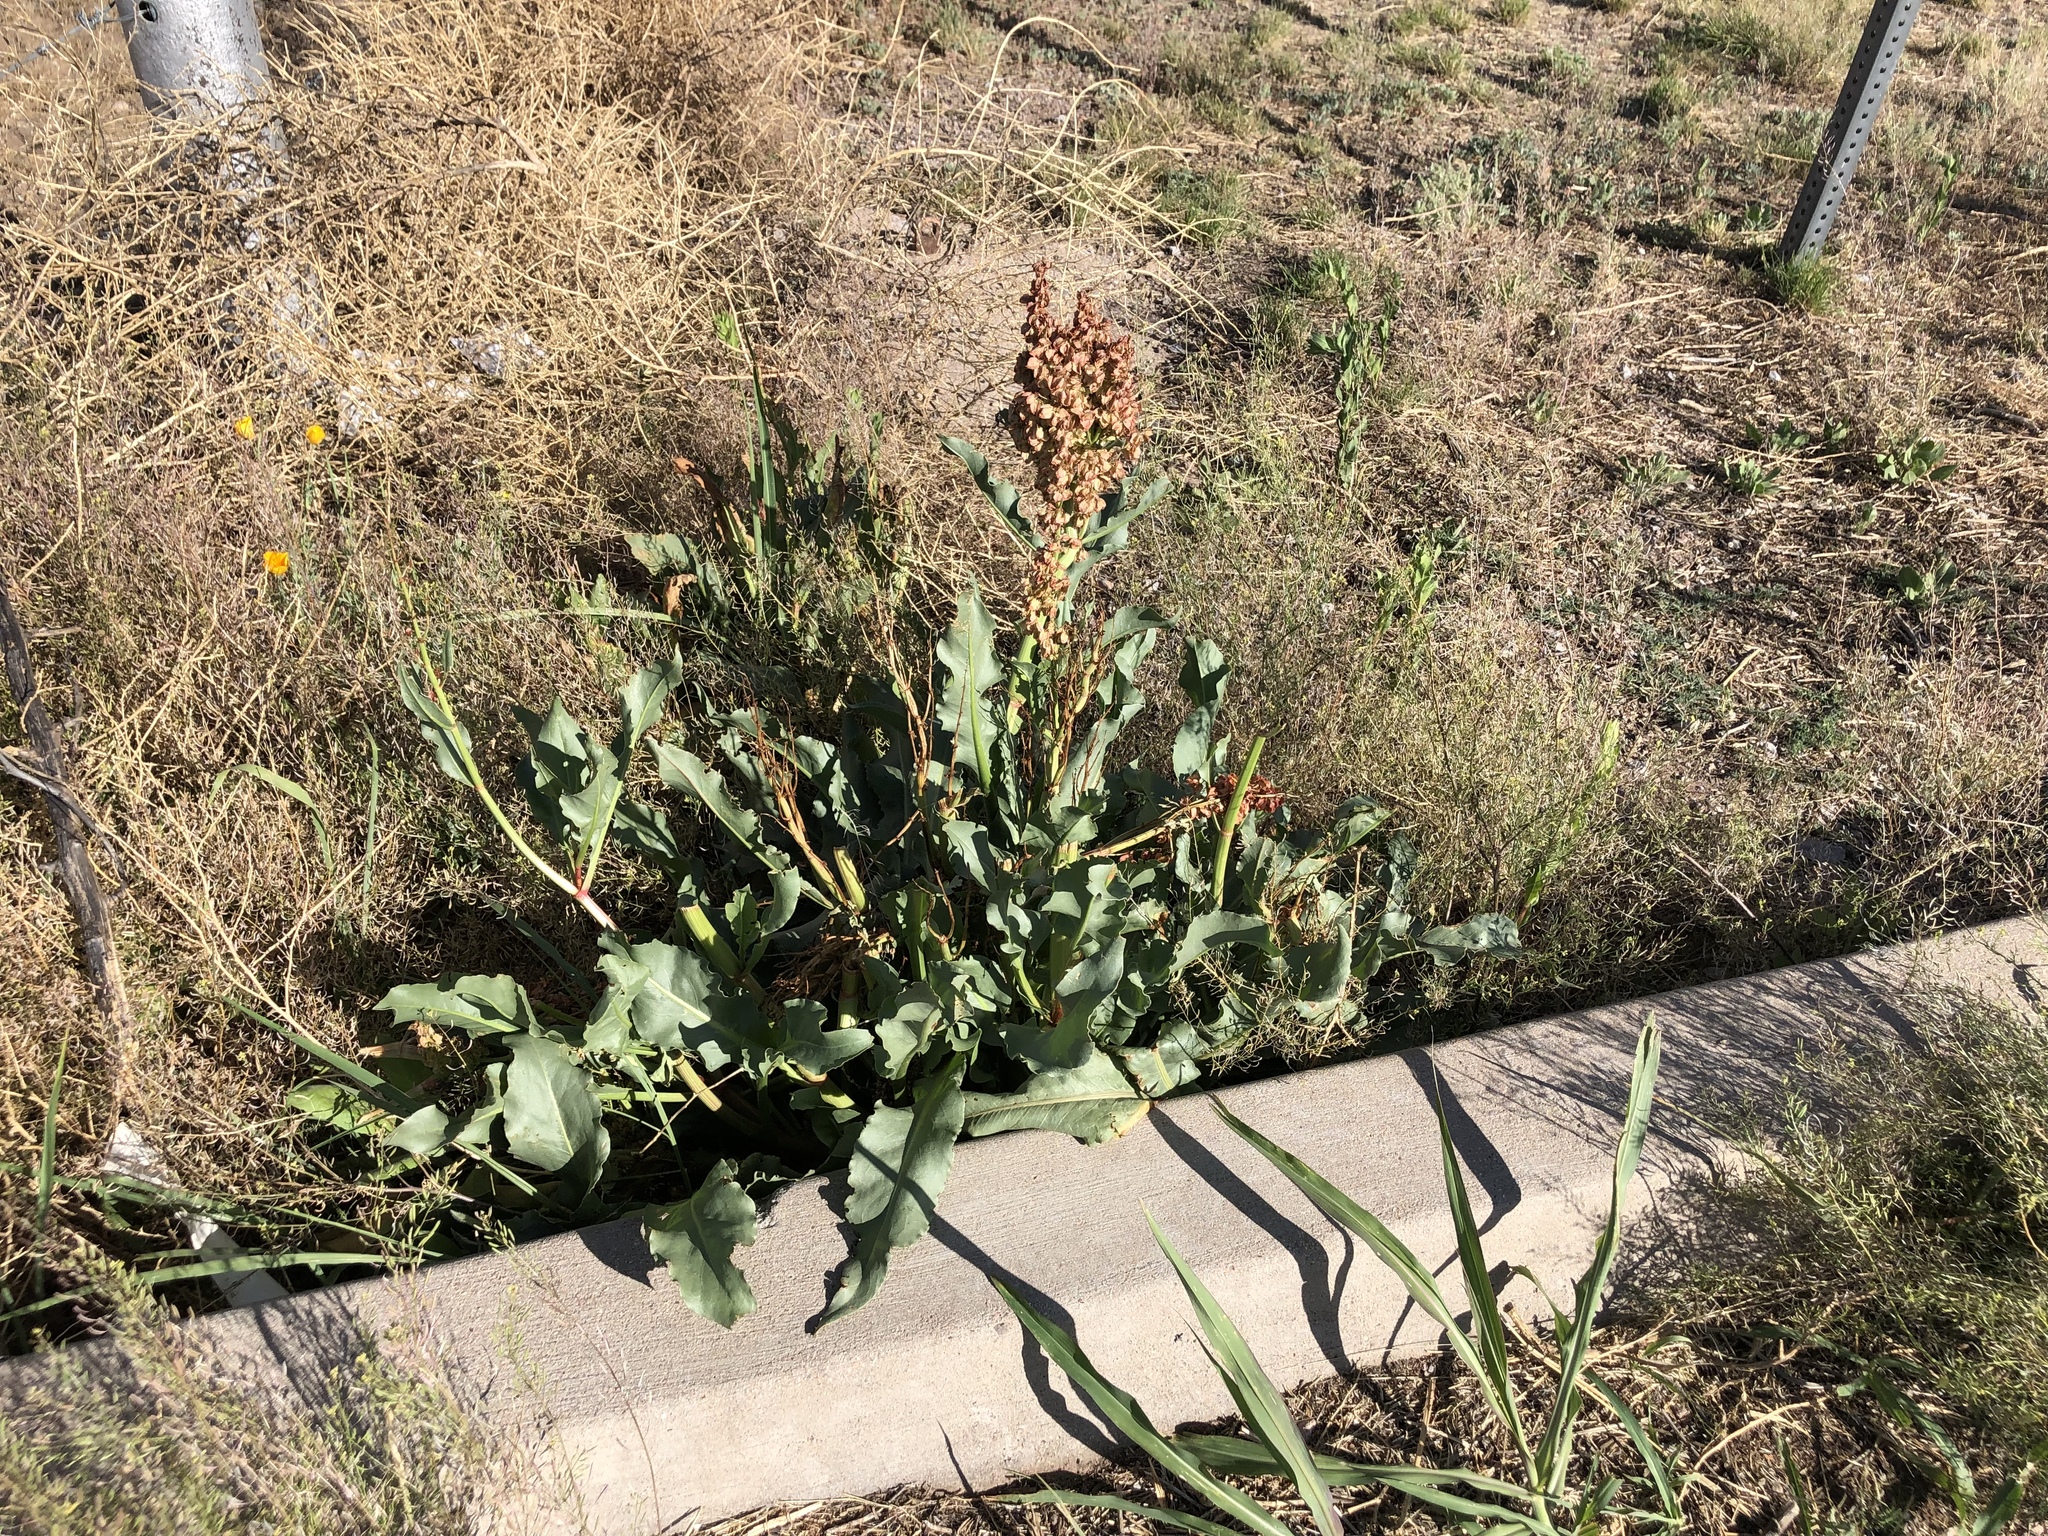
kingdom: Plantae
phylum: Tracheophyta
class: Magnoliopsida
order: Caryophyllales
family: Polygonaceae
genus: Rumex
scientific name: Rumex hymenosepalus
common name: Ganagra
